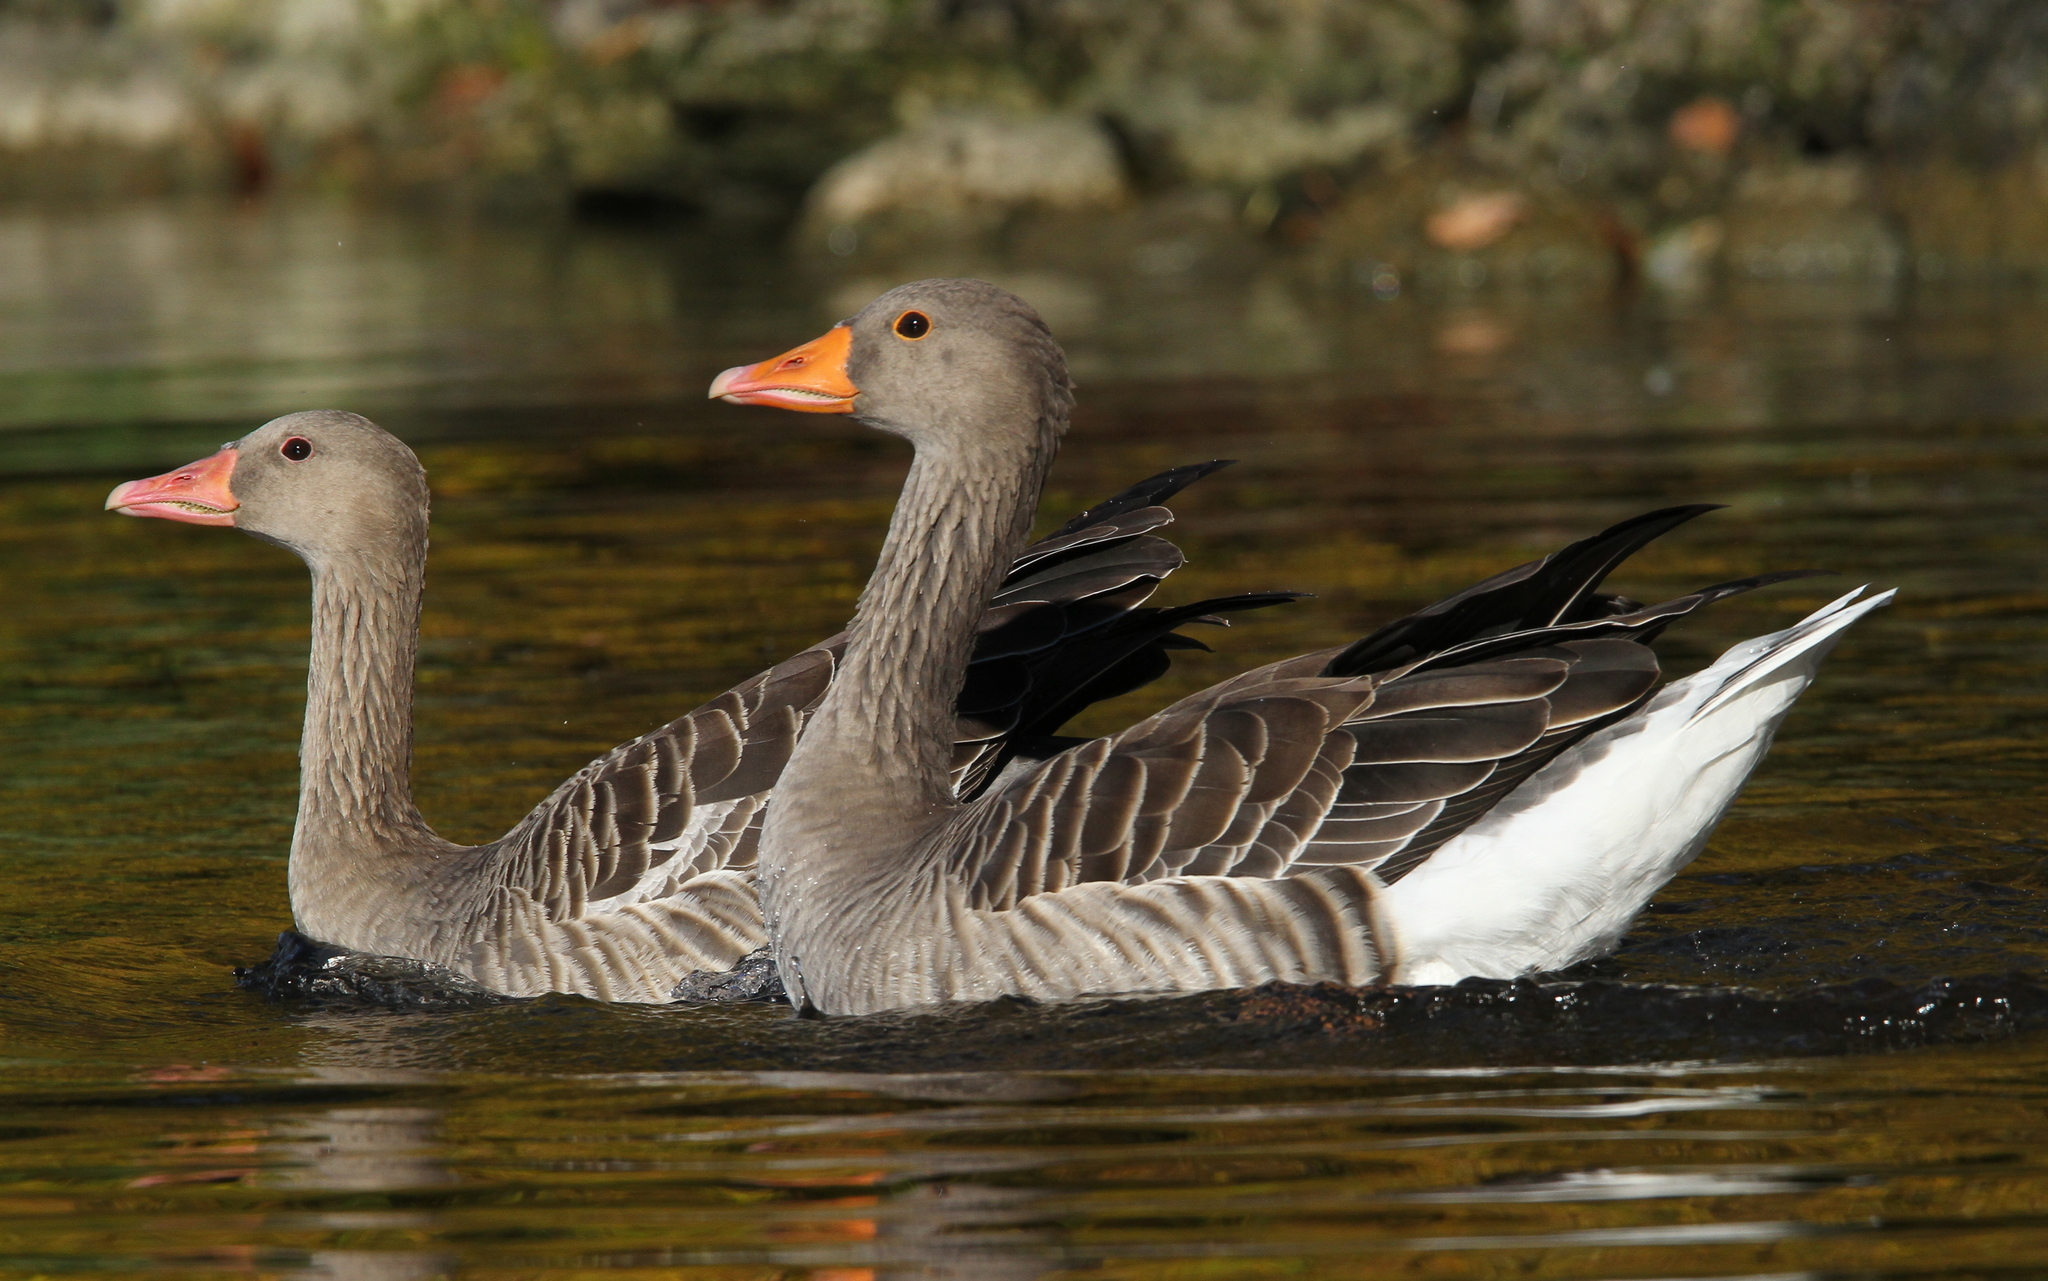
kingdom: Animalia
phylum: Chordata
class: Aves
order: Anseriformes
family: Anatidae
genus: Anser
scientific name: Anser anser
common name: Greylag goose
